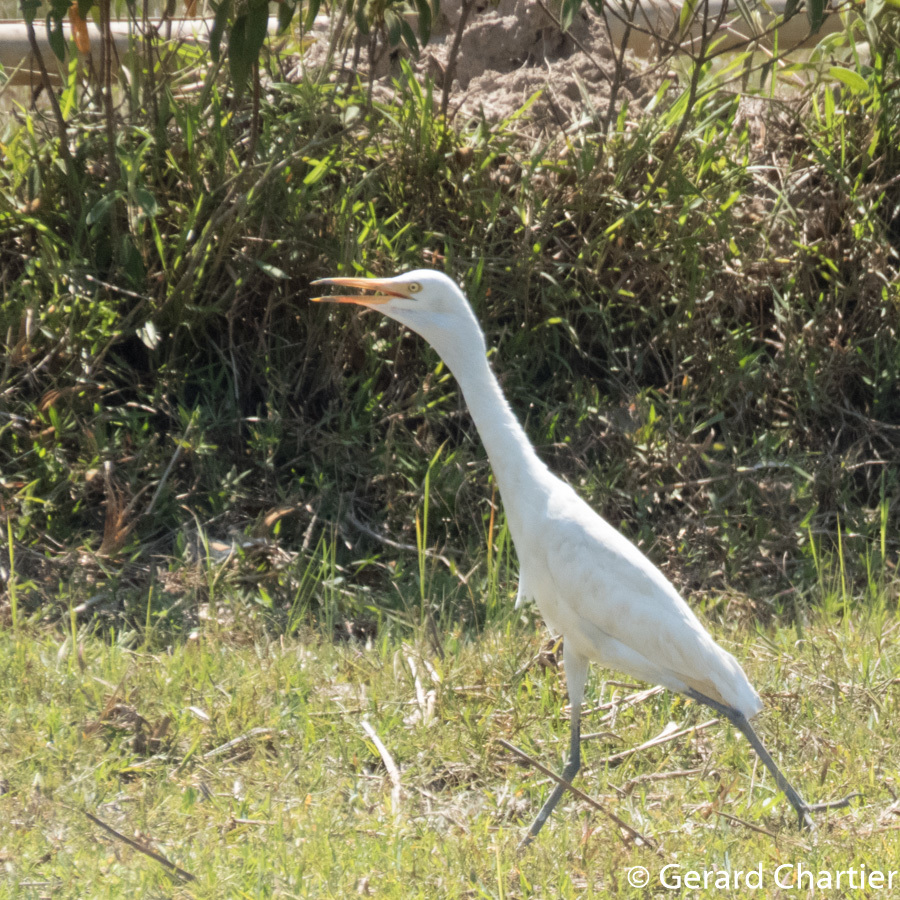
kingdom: Animalia
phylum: Chordata
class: Aves
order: Pelecaniformes
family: Ardeidae
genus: Bubulcus
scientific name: Bubulcus coromandus
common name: Eastern cattle egret
